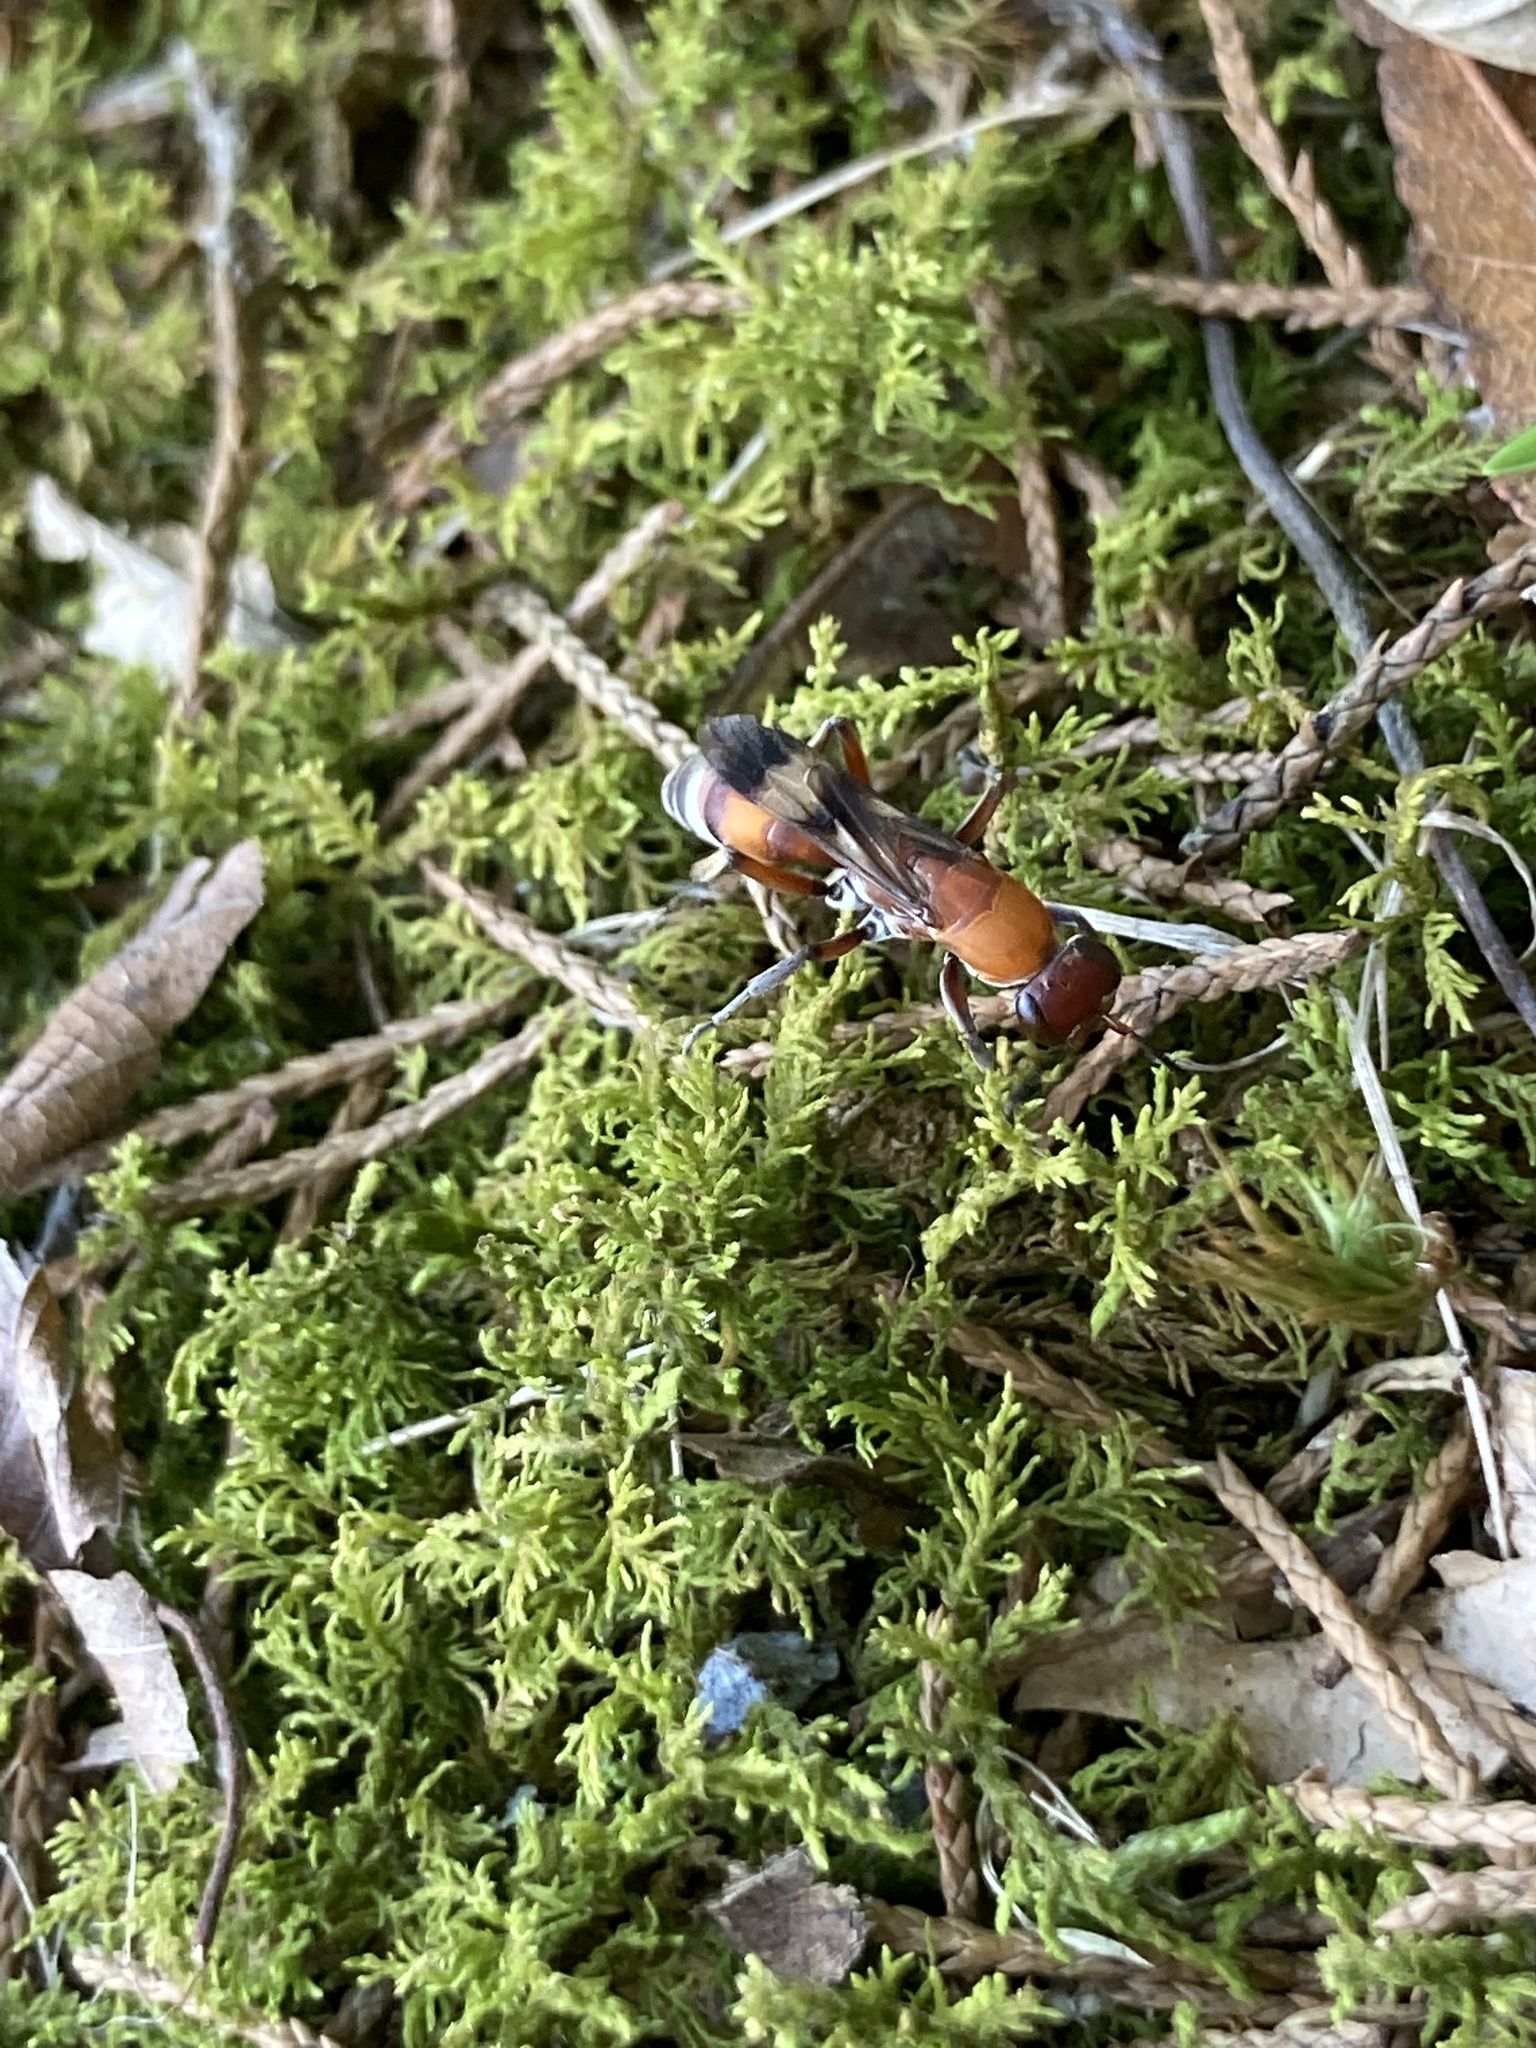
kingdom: Animalia
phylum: Arthropoda
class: Insecta
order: Hymenoptera
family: Pompilidae
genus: Psorthaspis
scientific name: Psorthaspis legata
